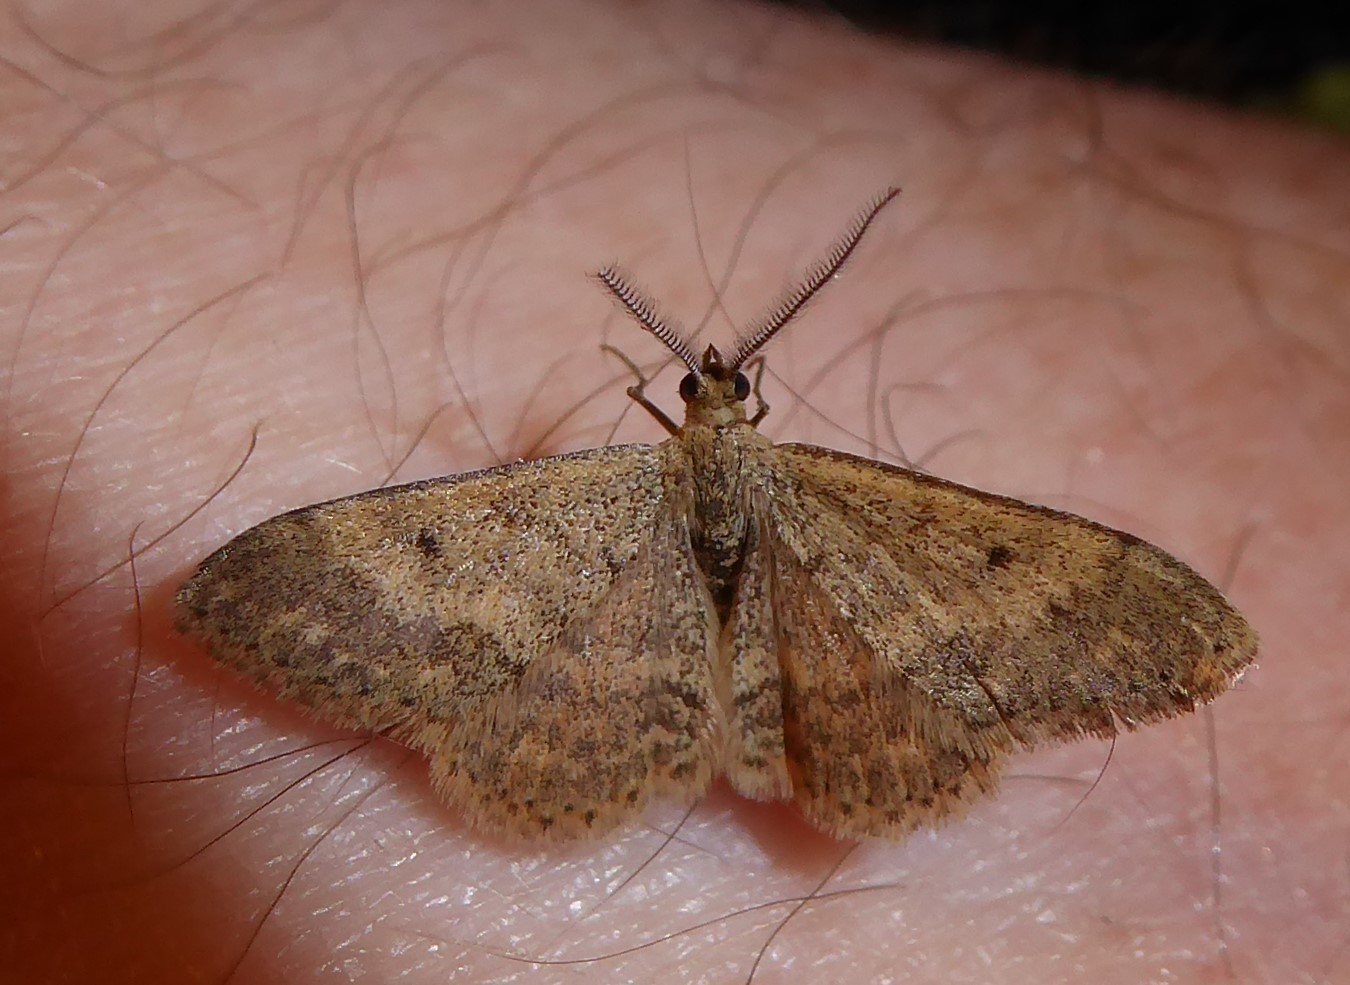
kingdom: Animalia
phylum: Arthropoda
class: Insecta
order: Lepidoptera
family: Geometridae
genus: Scopula
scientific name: Scopula rubraria
